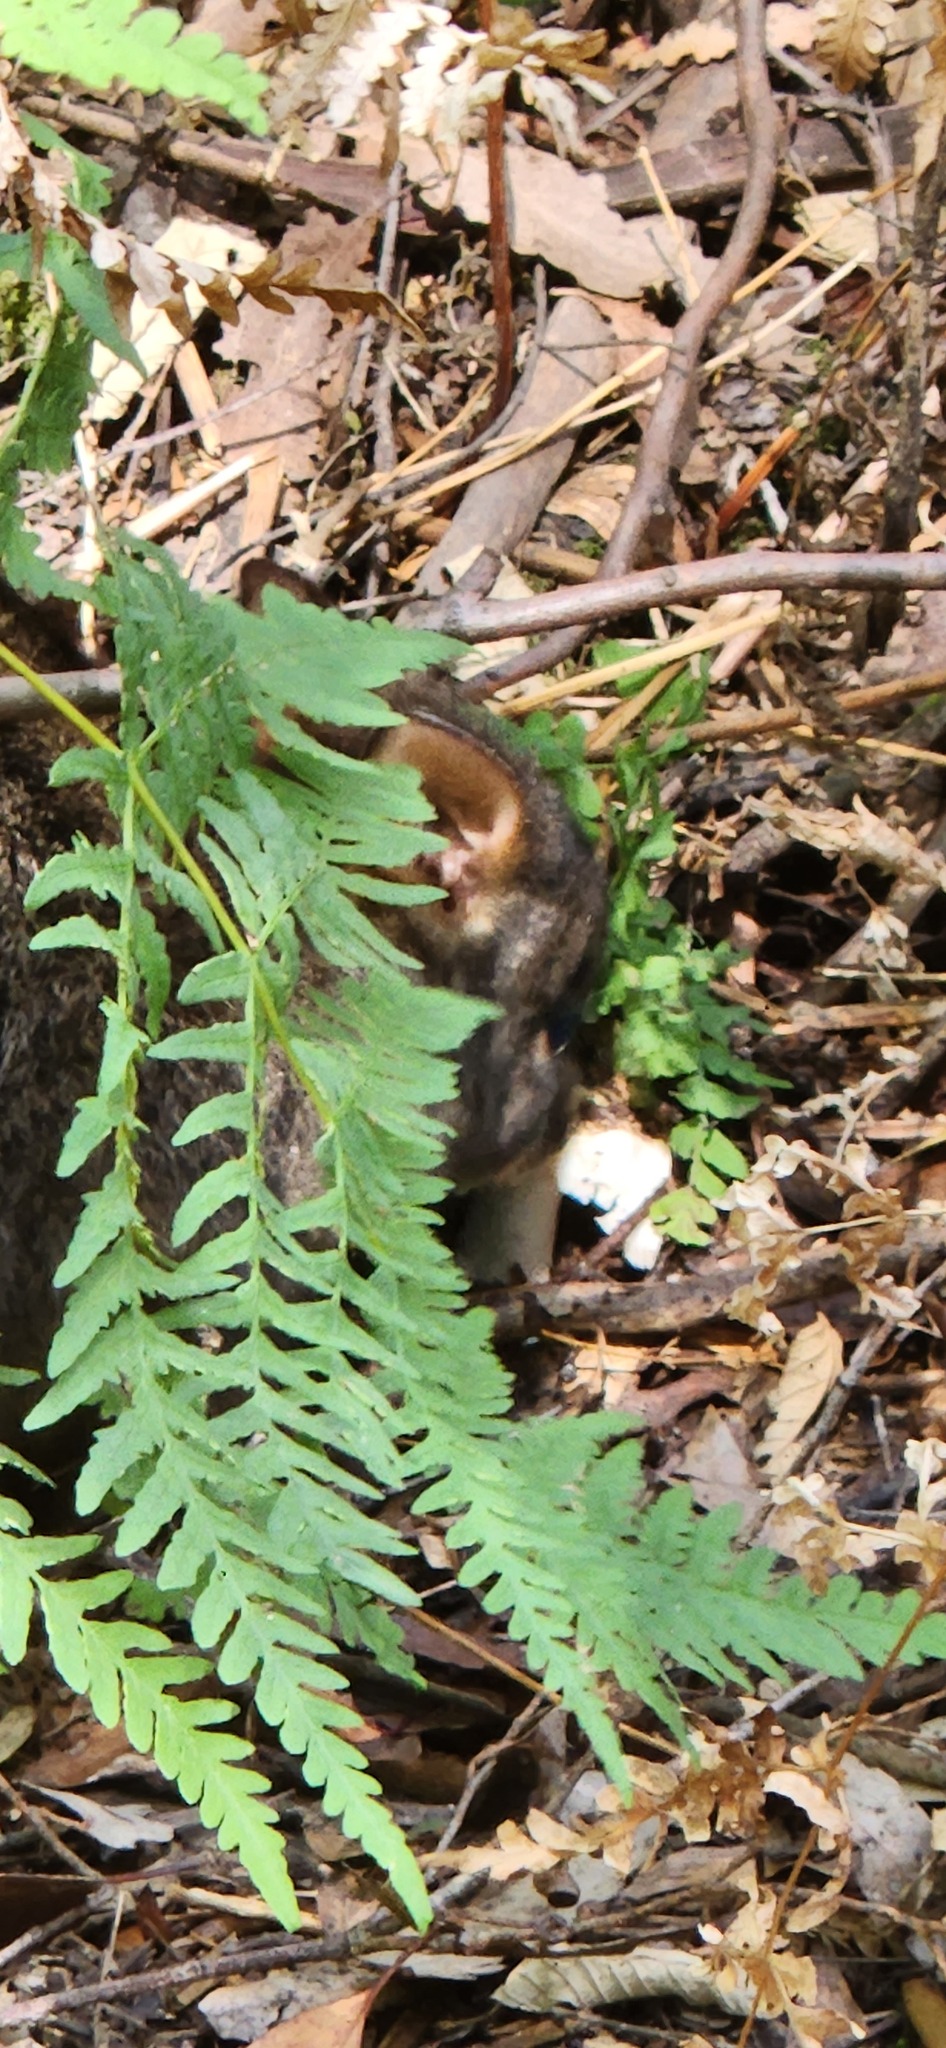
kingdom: Animalia
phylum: Chordata
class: Mammalia
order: Diprotodontia
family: Macropodidae
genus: Thylogale
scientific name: Thylogale billardierii
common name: Tasmanian pademelon
